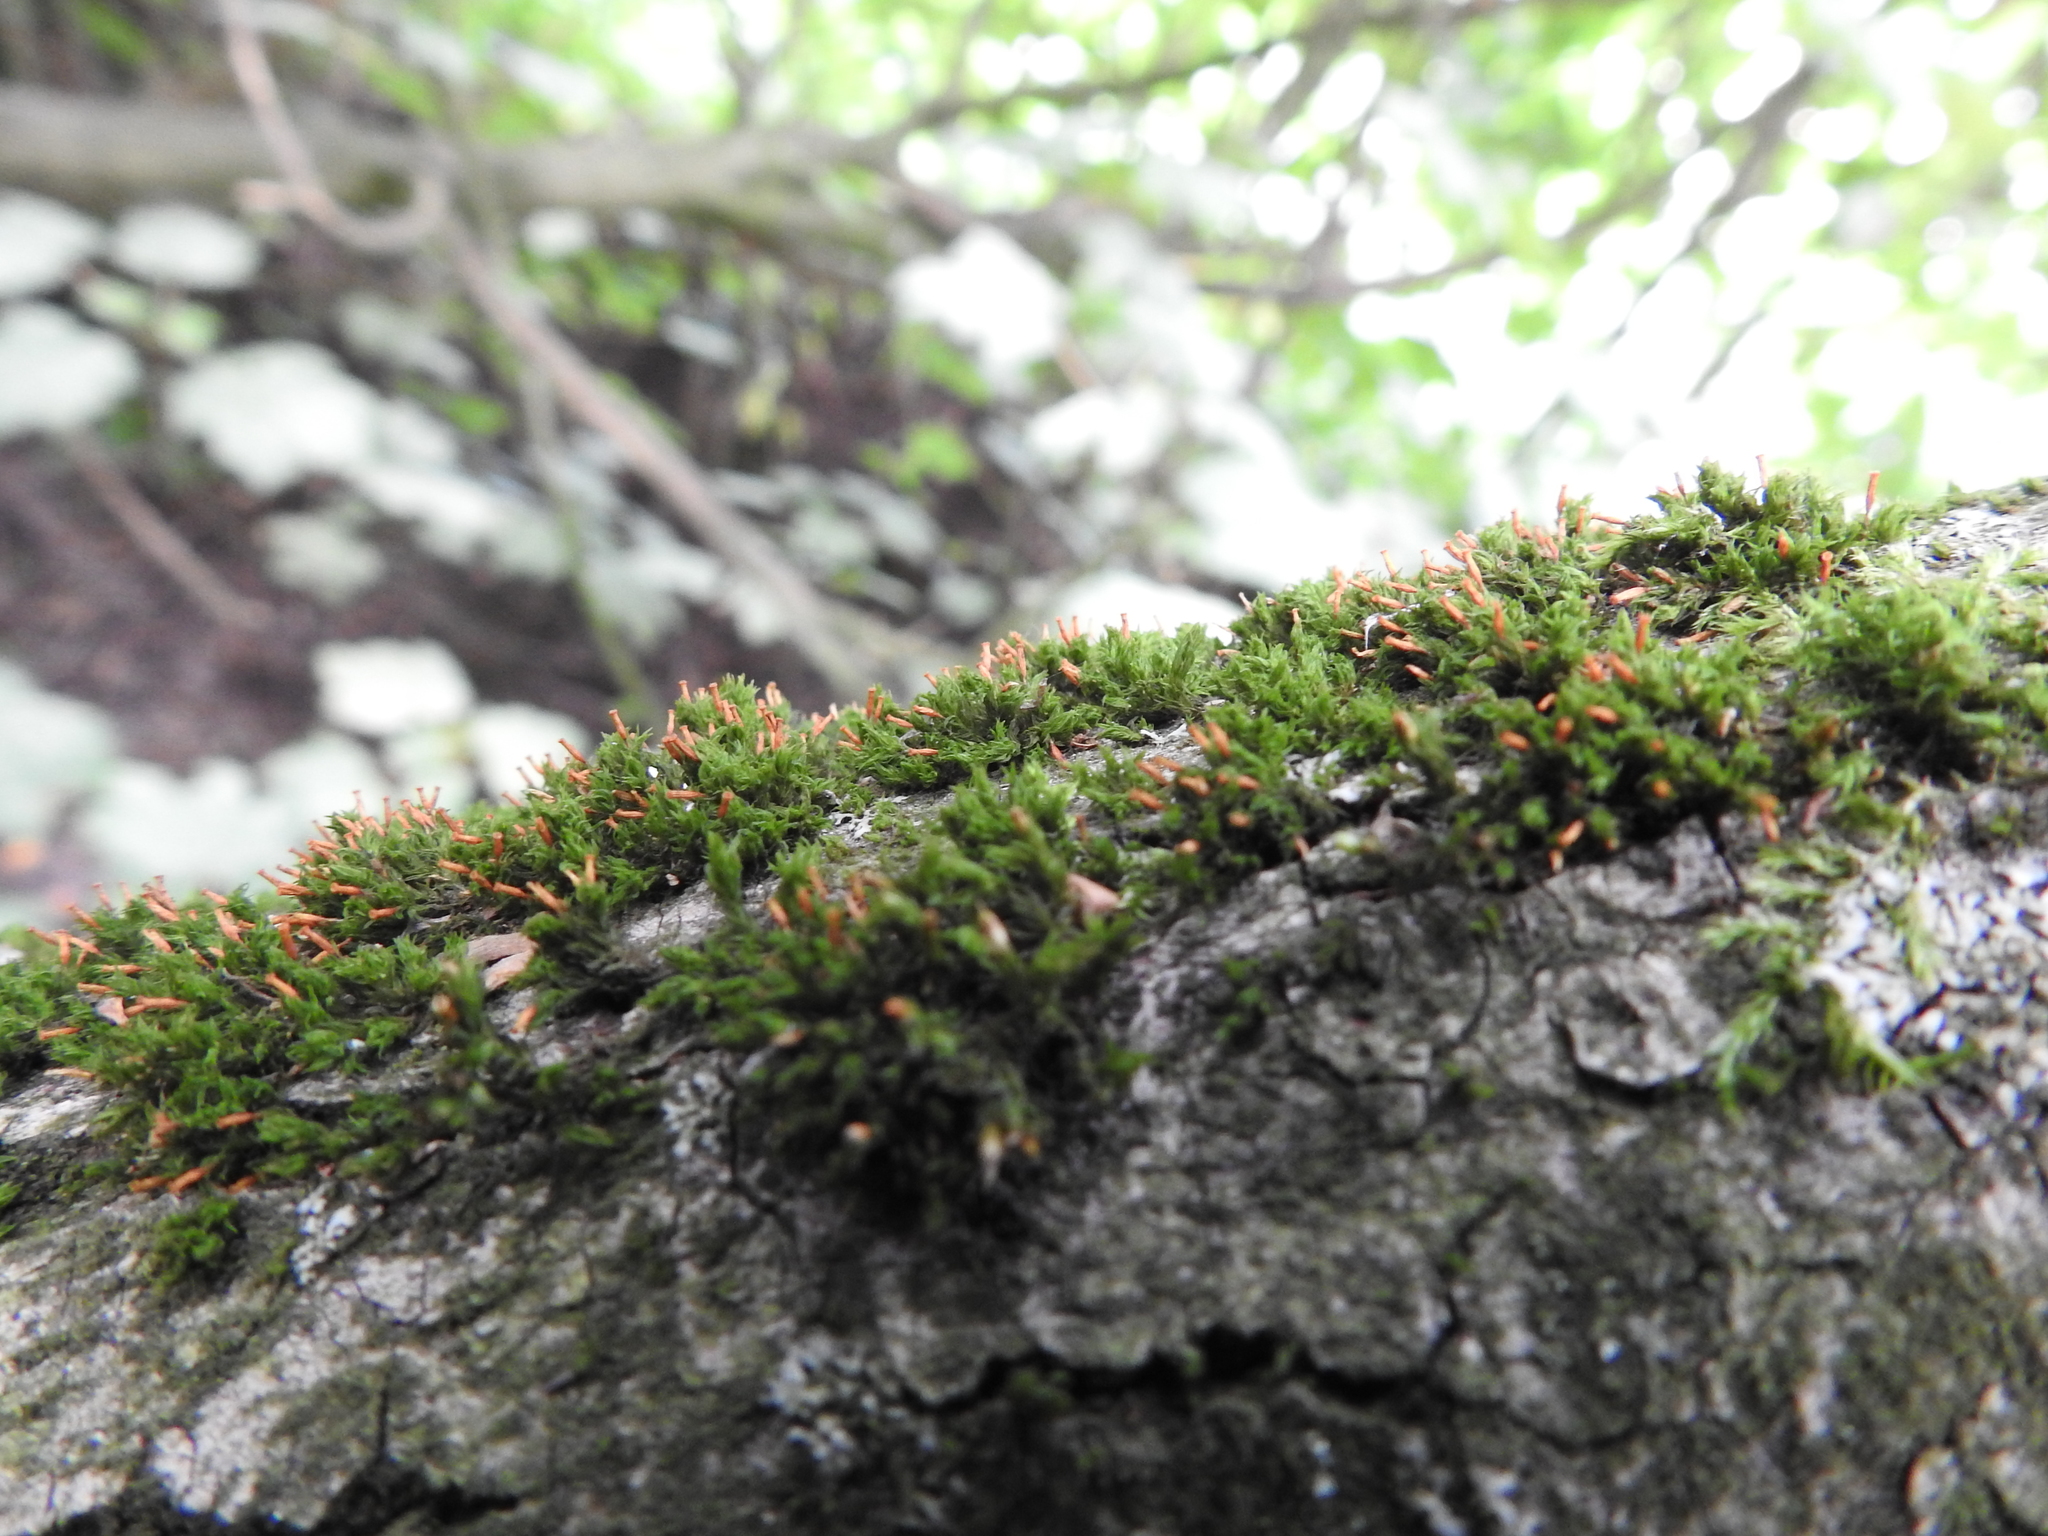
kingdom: Plantae
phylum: Bryophyta
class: Bryopsida
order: Orthotrichales
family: Orthotrichaceae
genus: Orthotrichum
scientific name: Orthotrichum pulchellum
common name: Elegant bristle-moss
